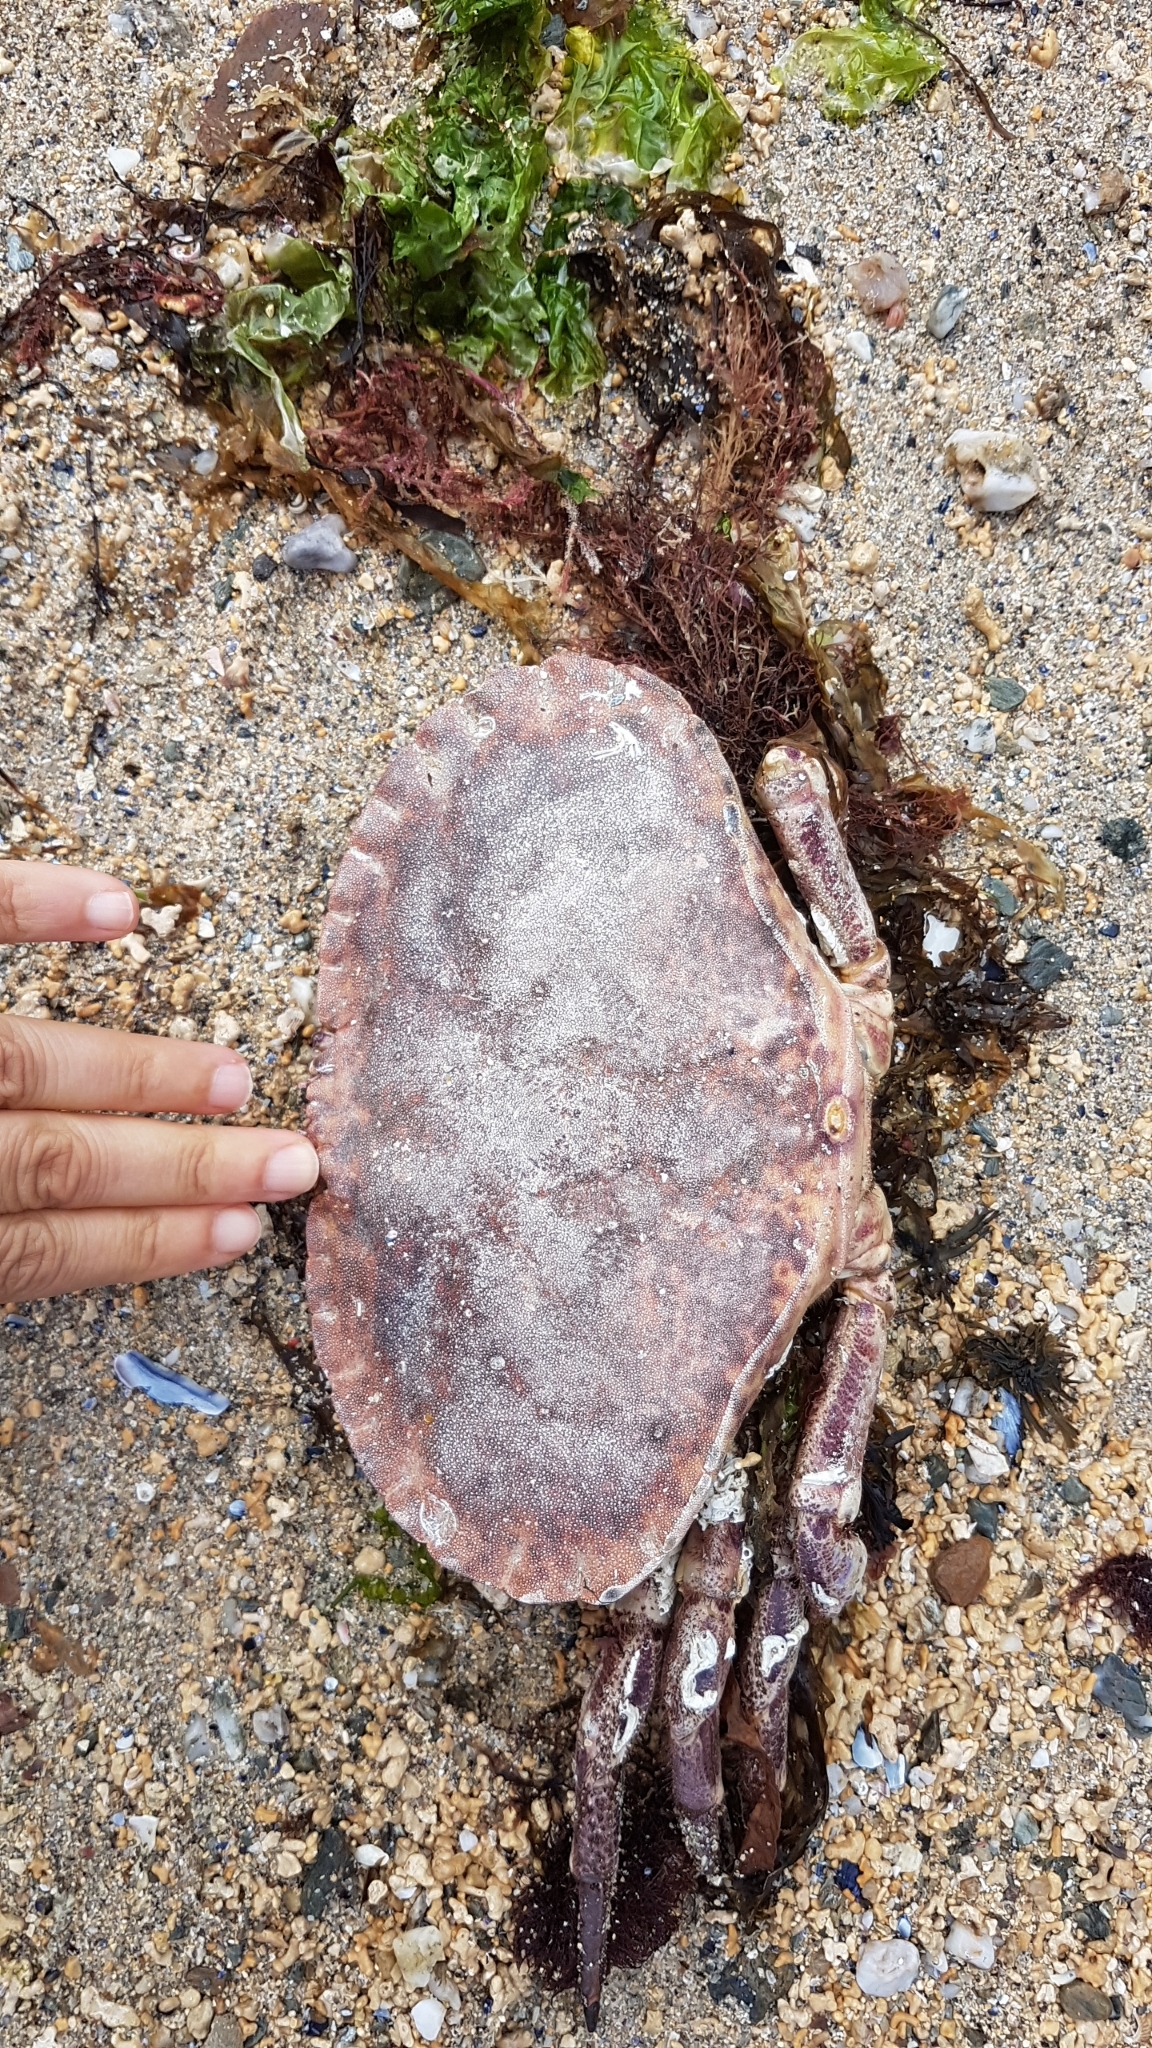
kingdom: Animalia
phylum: Arthropoda
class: Malacostraca
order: Decapoda
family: Cancridae
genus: Cancer
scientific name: Cancer pagurus
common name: Edible crab
